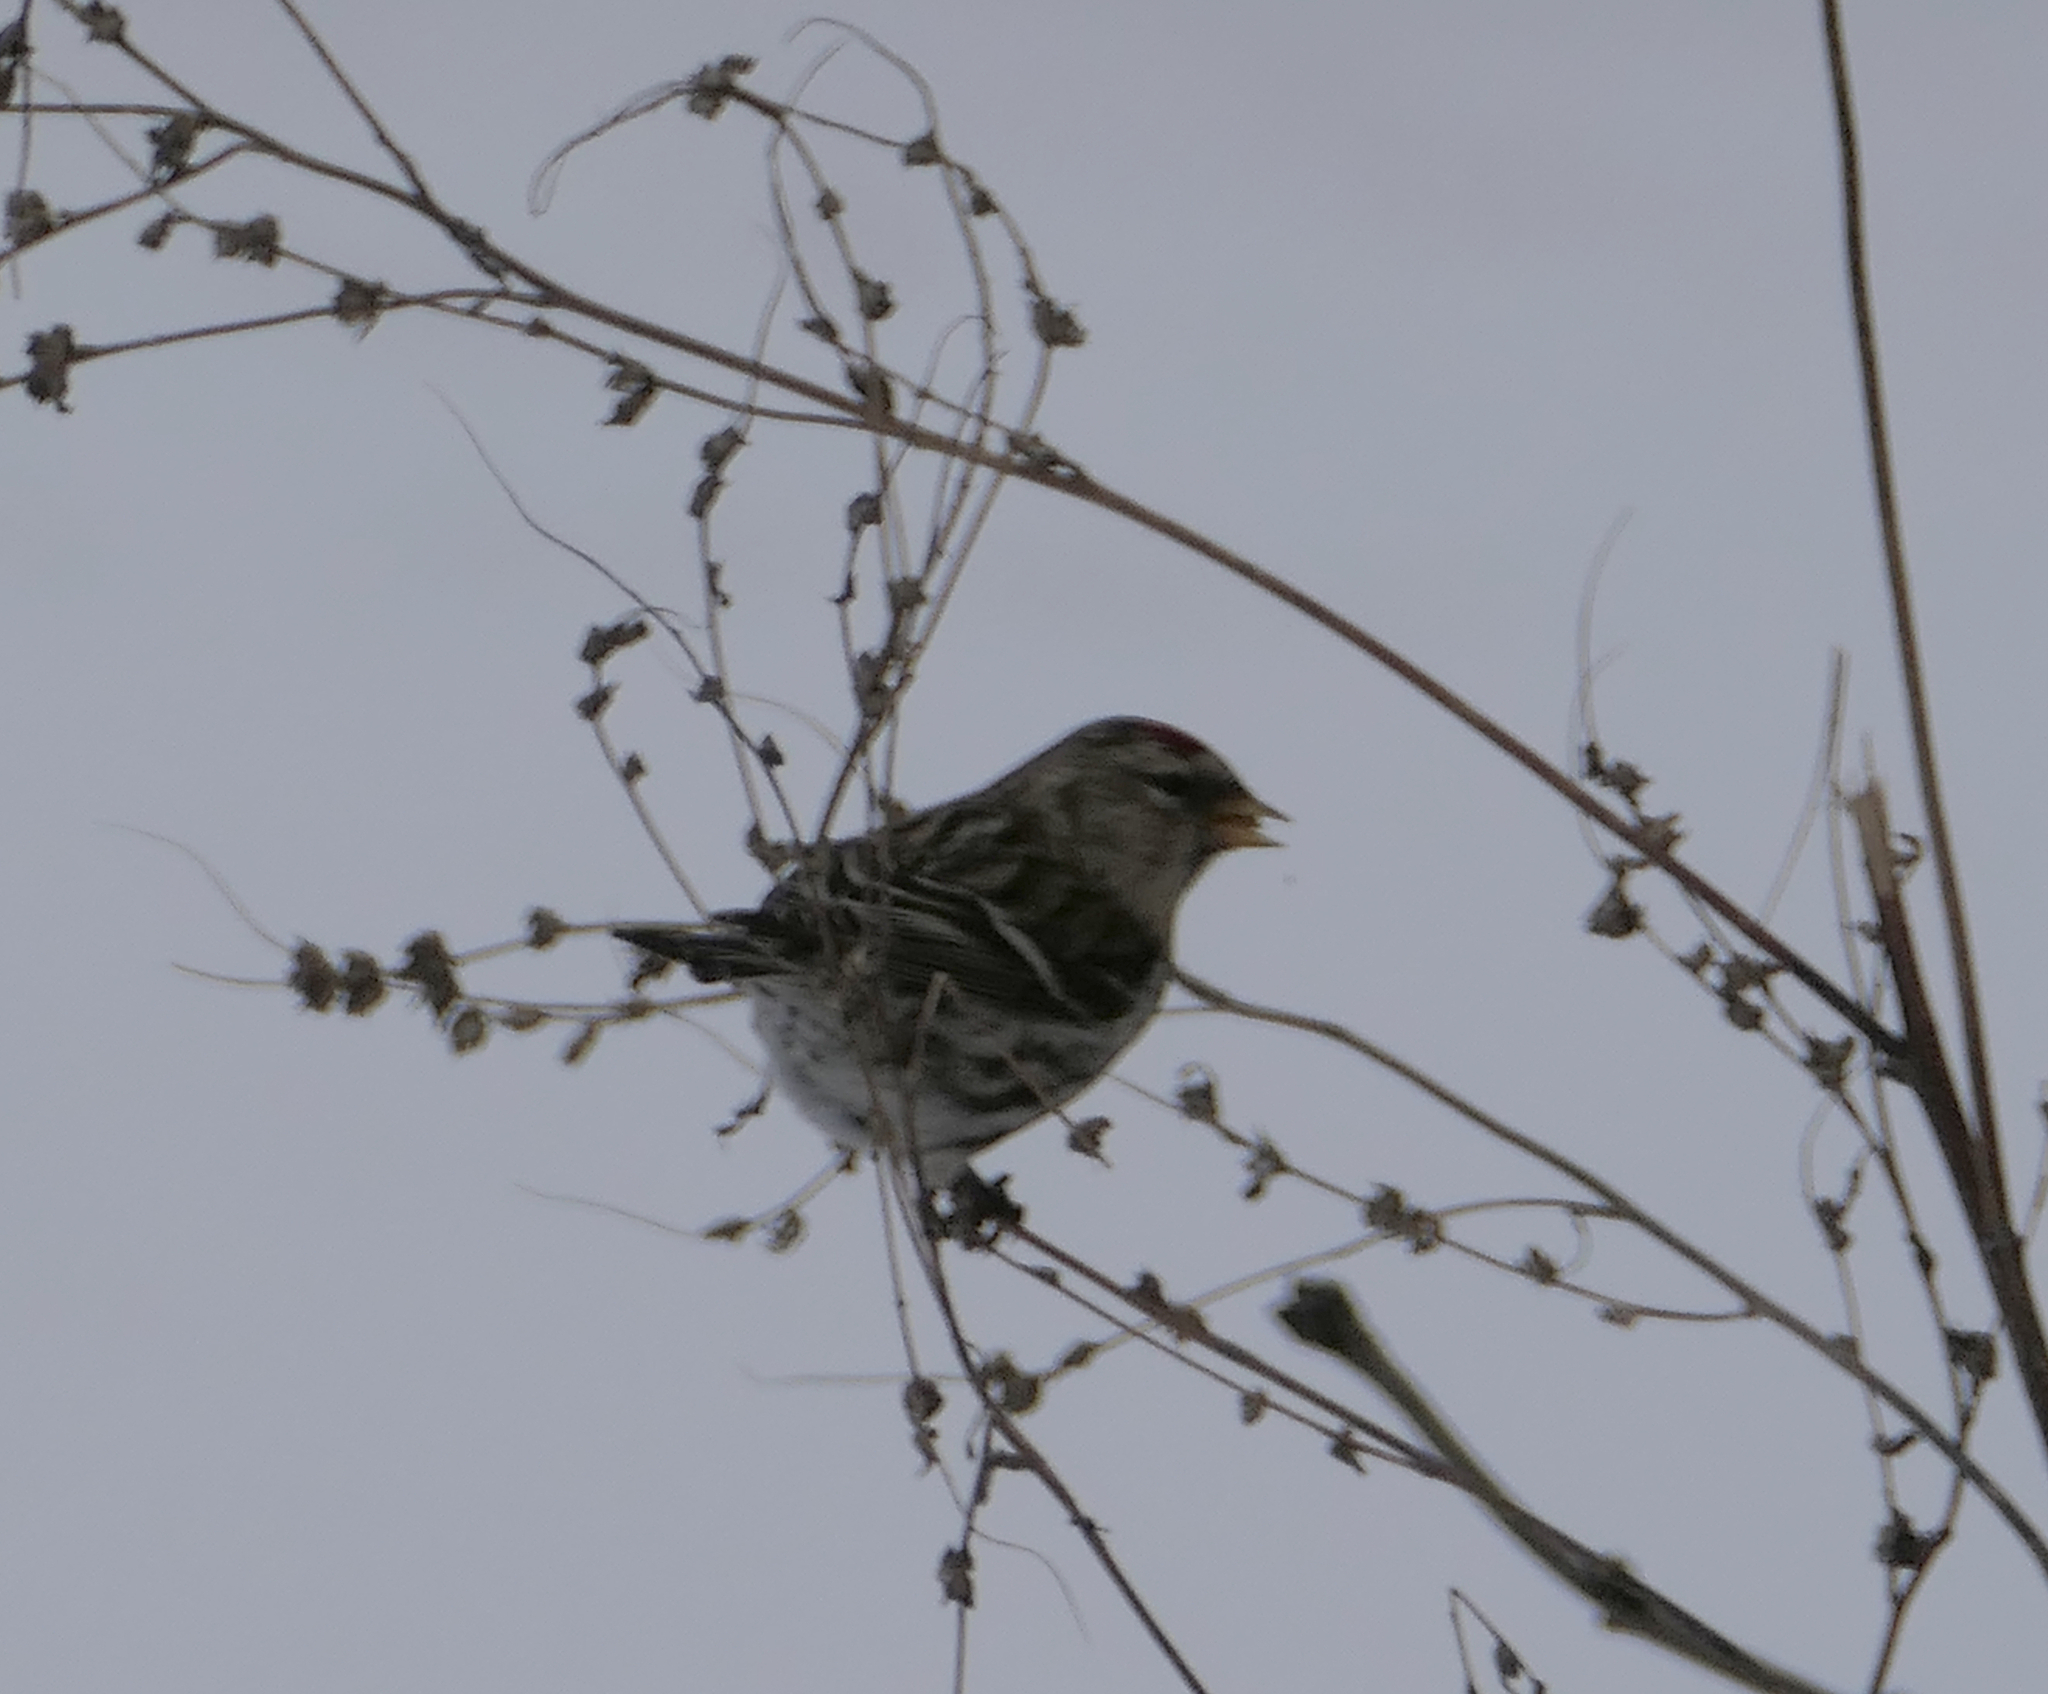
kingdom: Animalia
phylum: Chordata
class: Aves
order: Passeriformes
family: Fringillidae
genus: Acanthis
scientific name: Acanthis flammea
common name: Common redpoll
